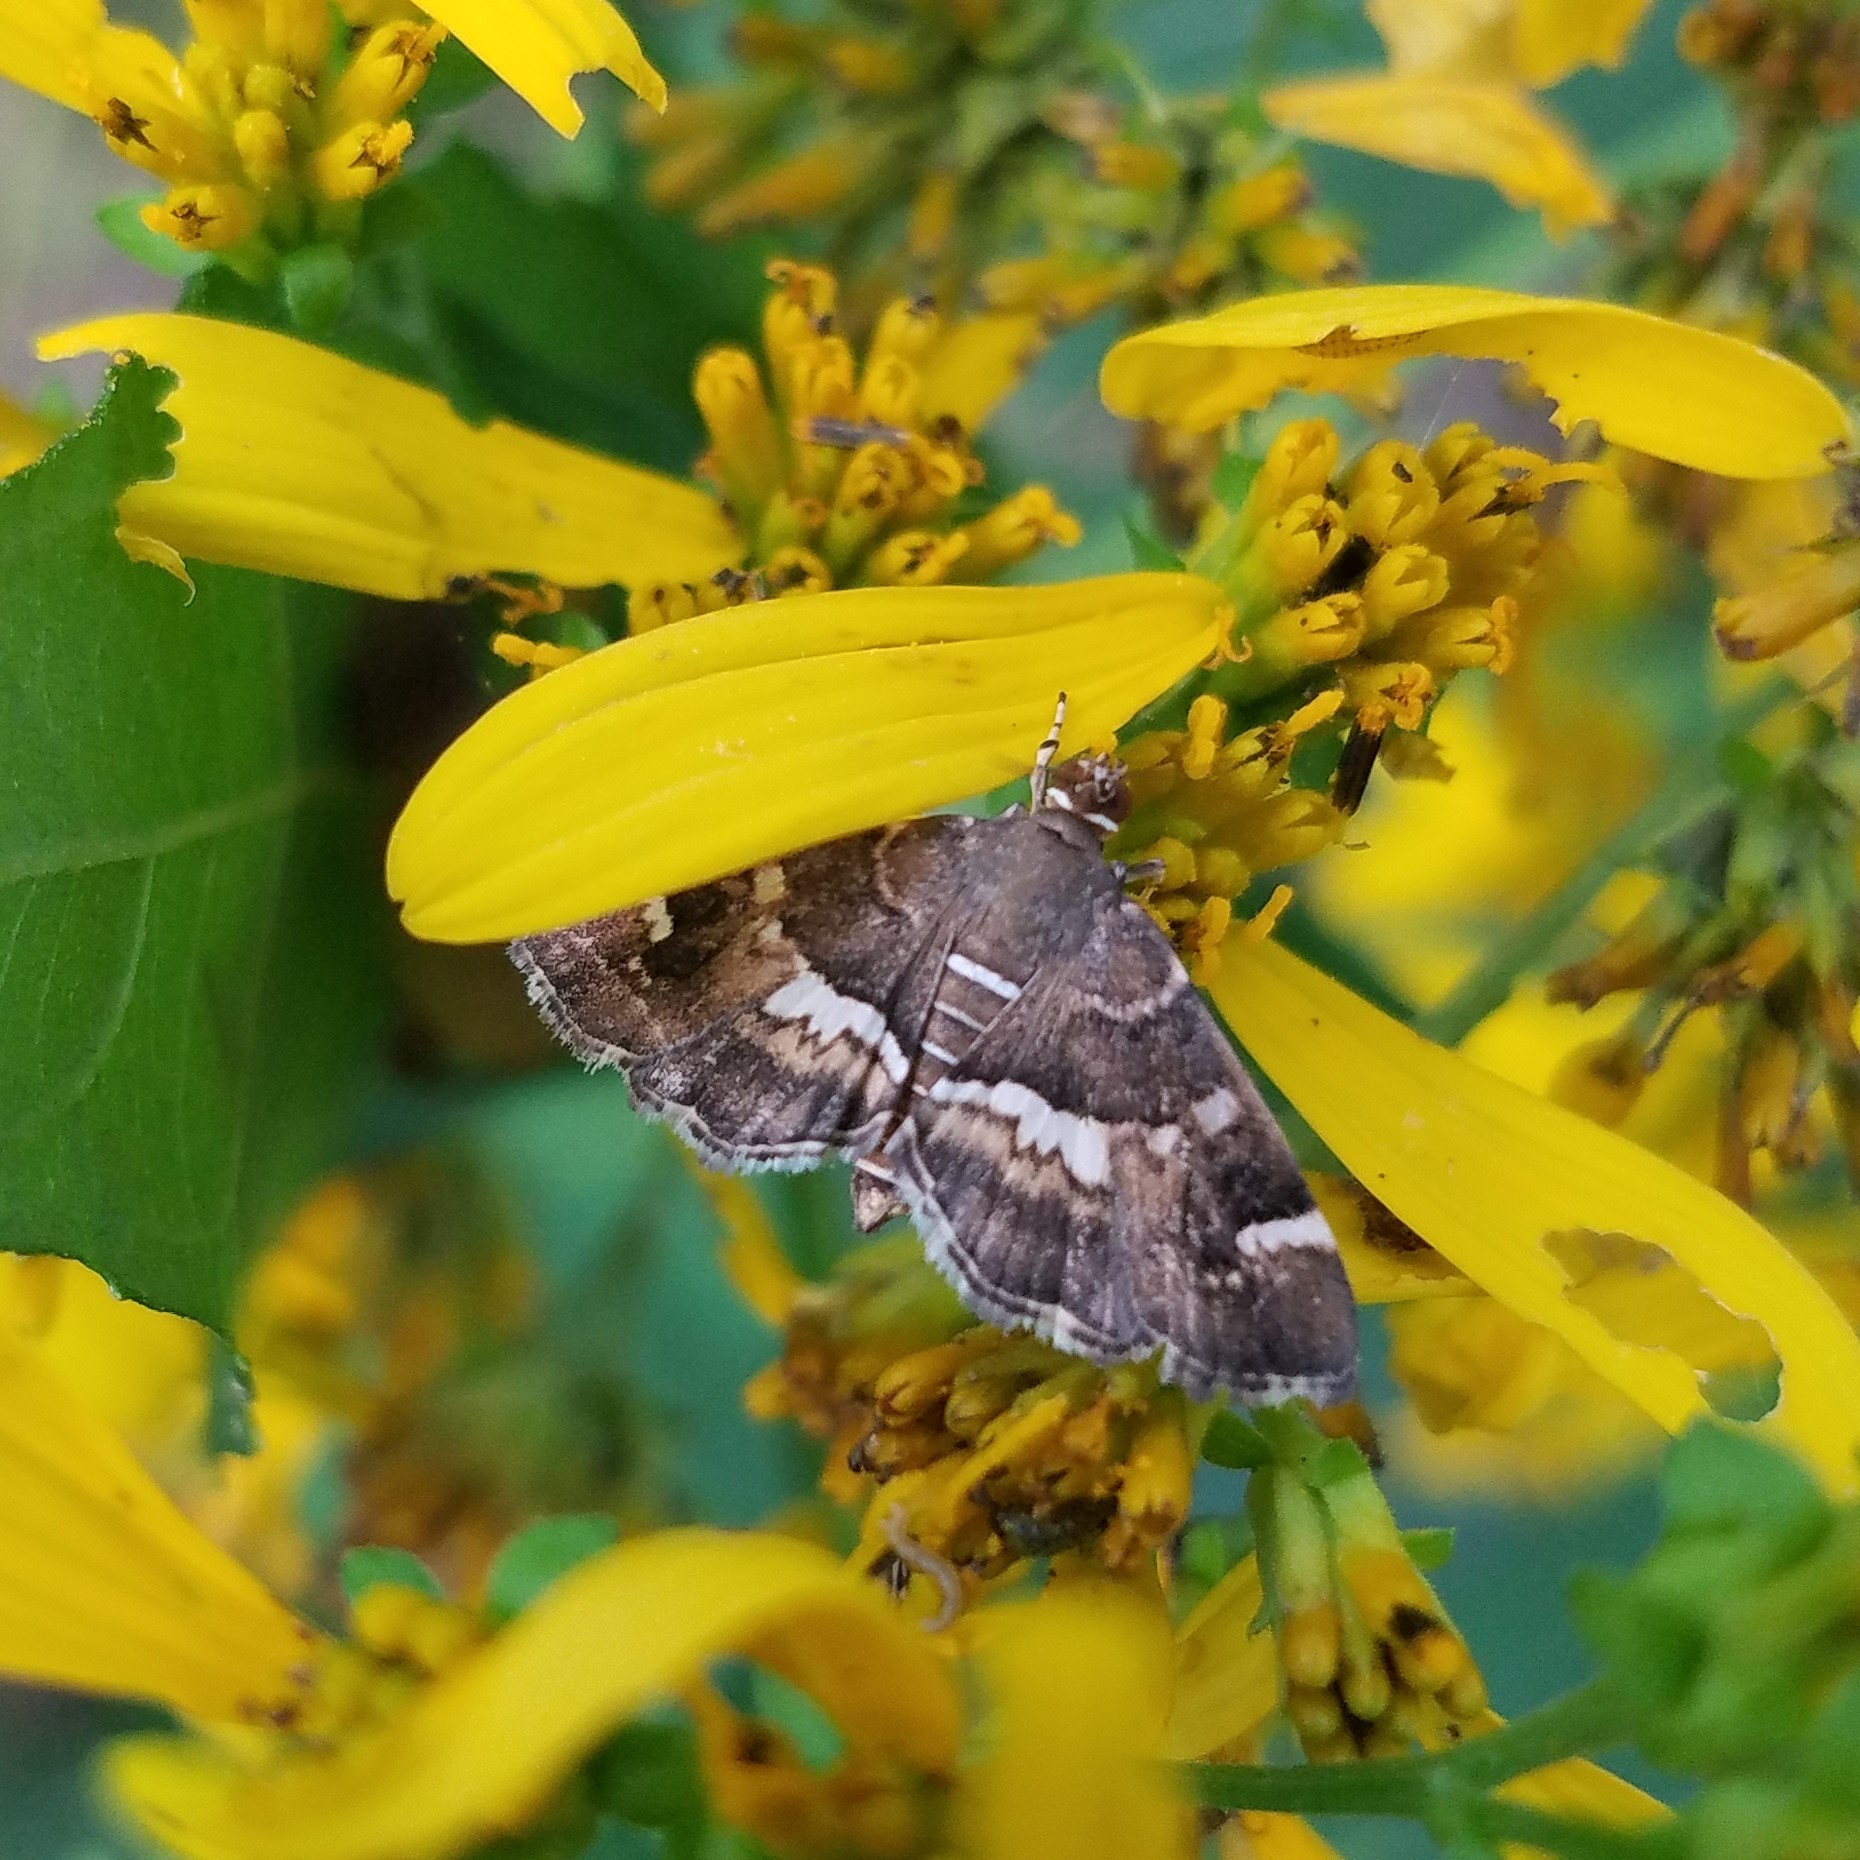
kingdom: Animalia
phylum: Arthropoda
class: Insecta
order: Lepidoptera
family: Crambidae
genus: Hymenia
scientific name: Hymenia perspectalis
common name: Spotted beet webworm
